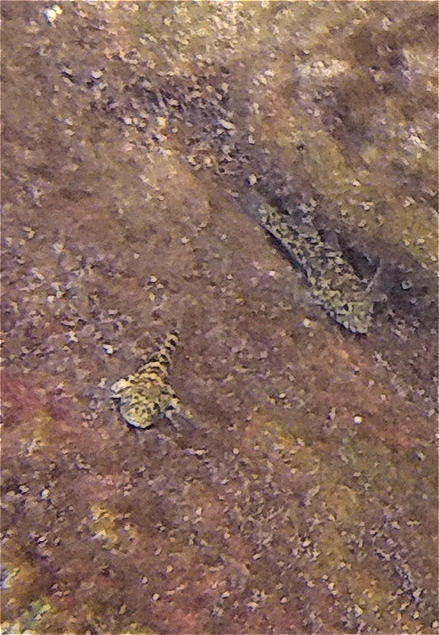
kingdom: Animalia
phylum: Chordata
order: Perciformes
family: Gobiidae
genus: Bathygobius
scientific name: Bathygobius lineatus
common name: Southern frillfin
